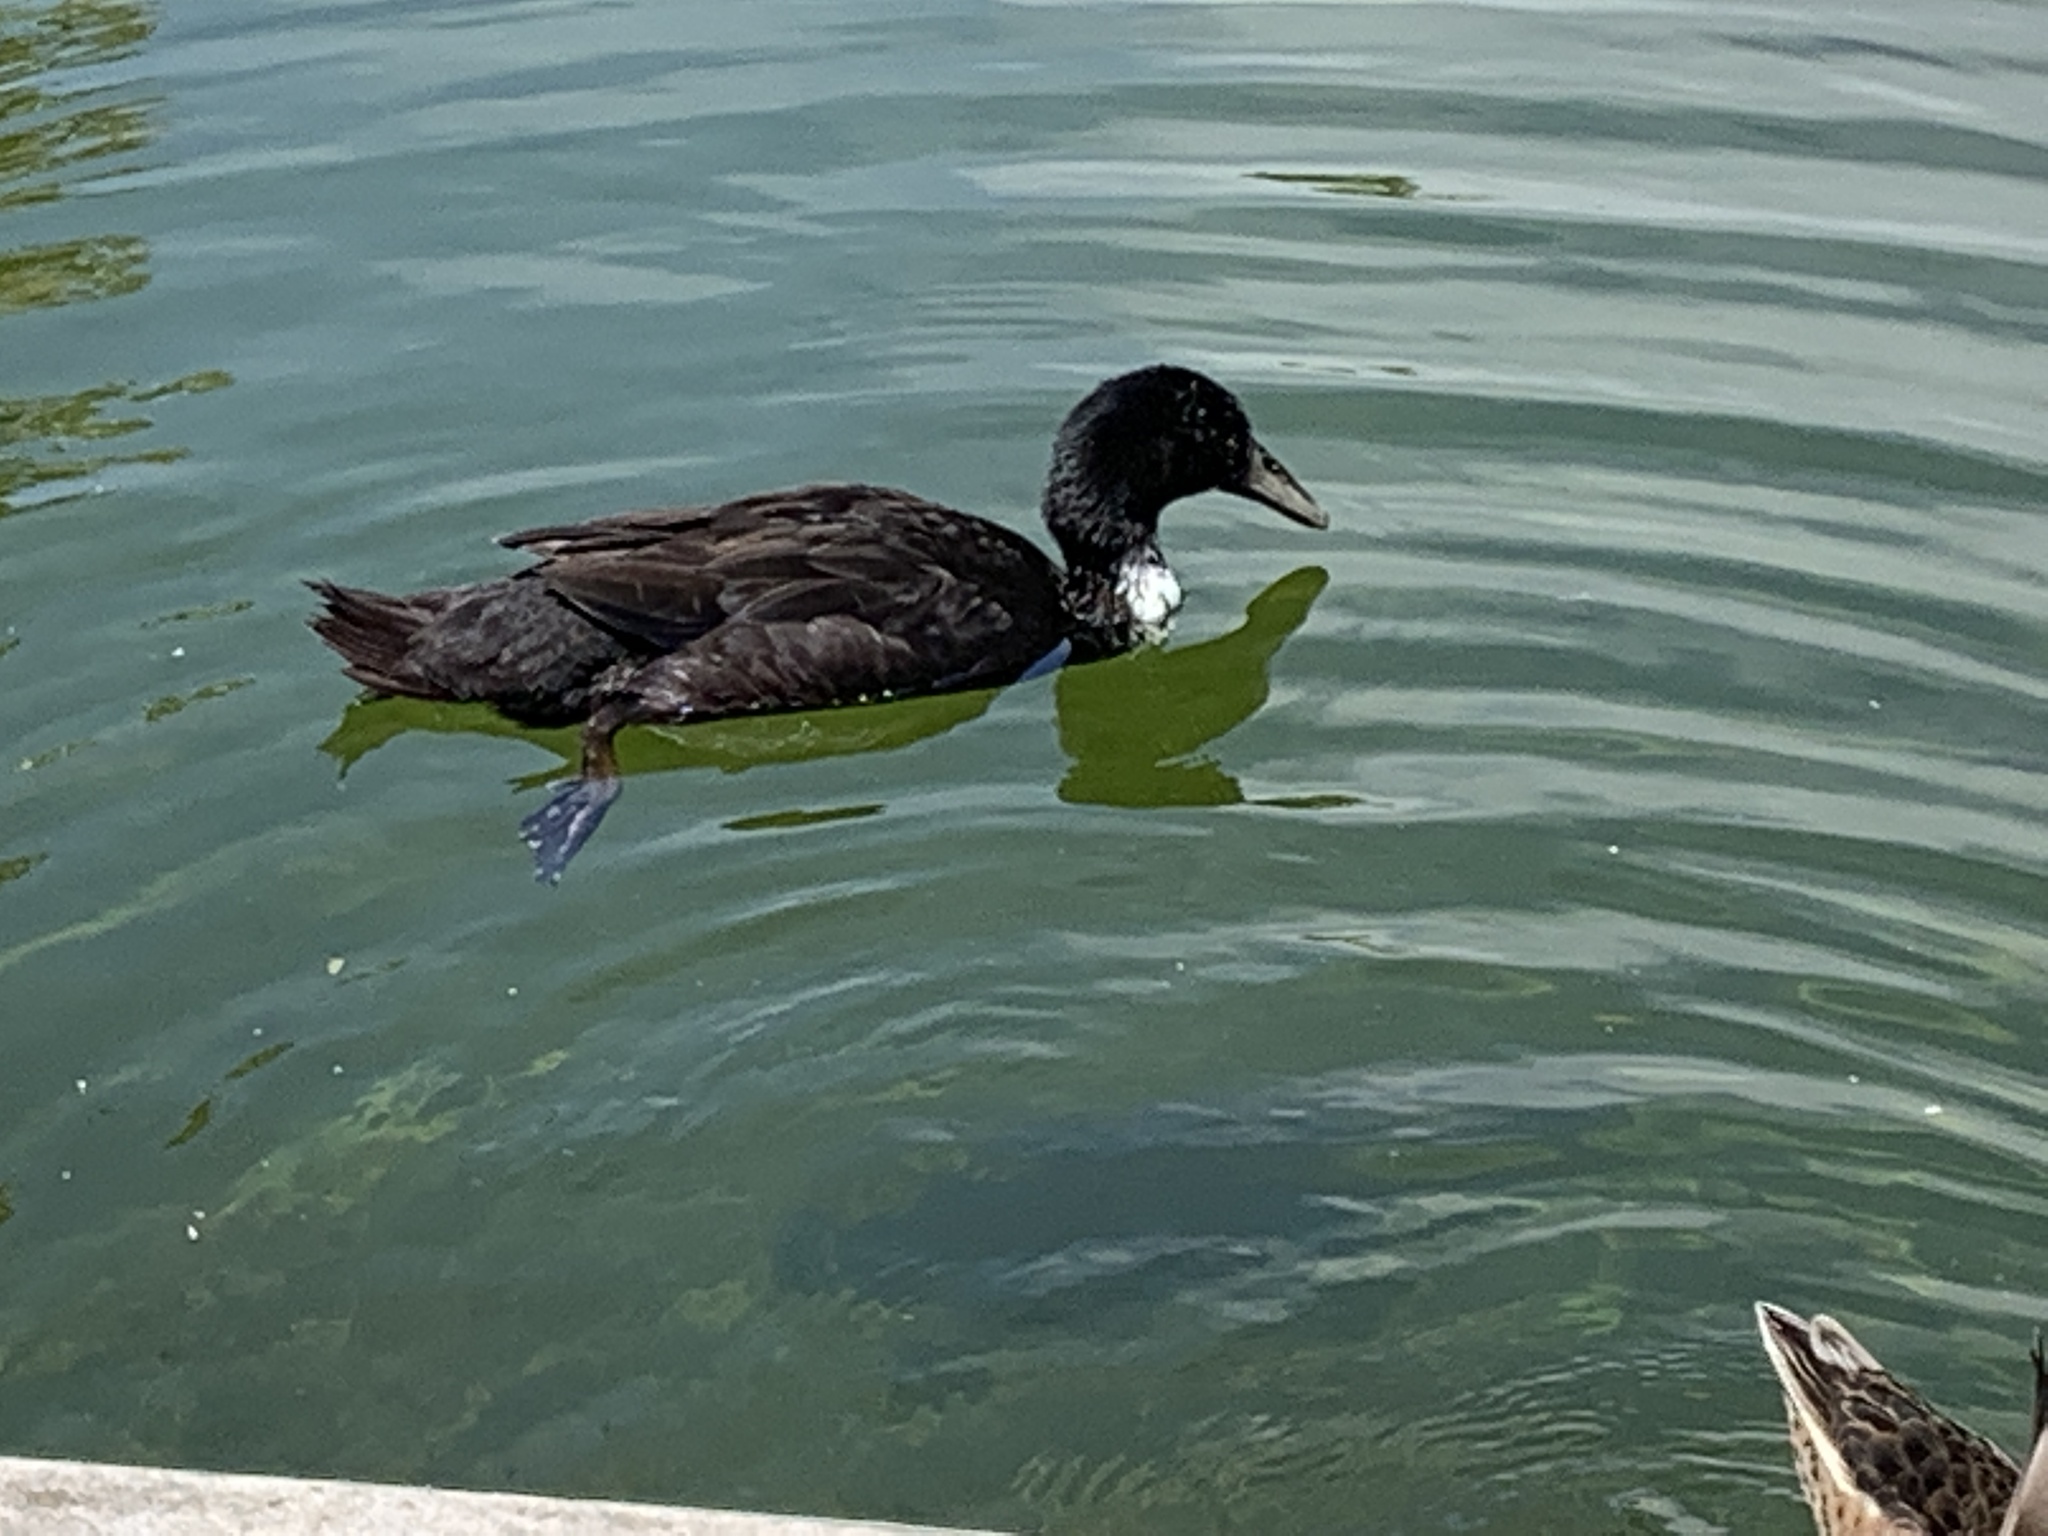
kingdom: Animalia
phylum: Chordata
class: Aves
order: Anseriformes
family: Anatidae
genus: Anas
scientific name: Anas platyrhynchos
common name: Mallard
